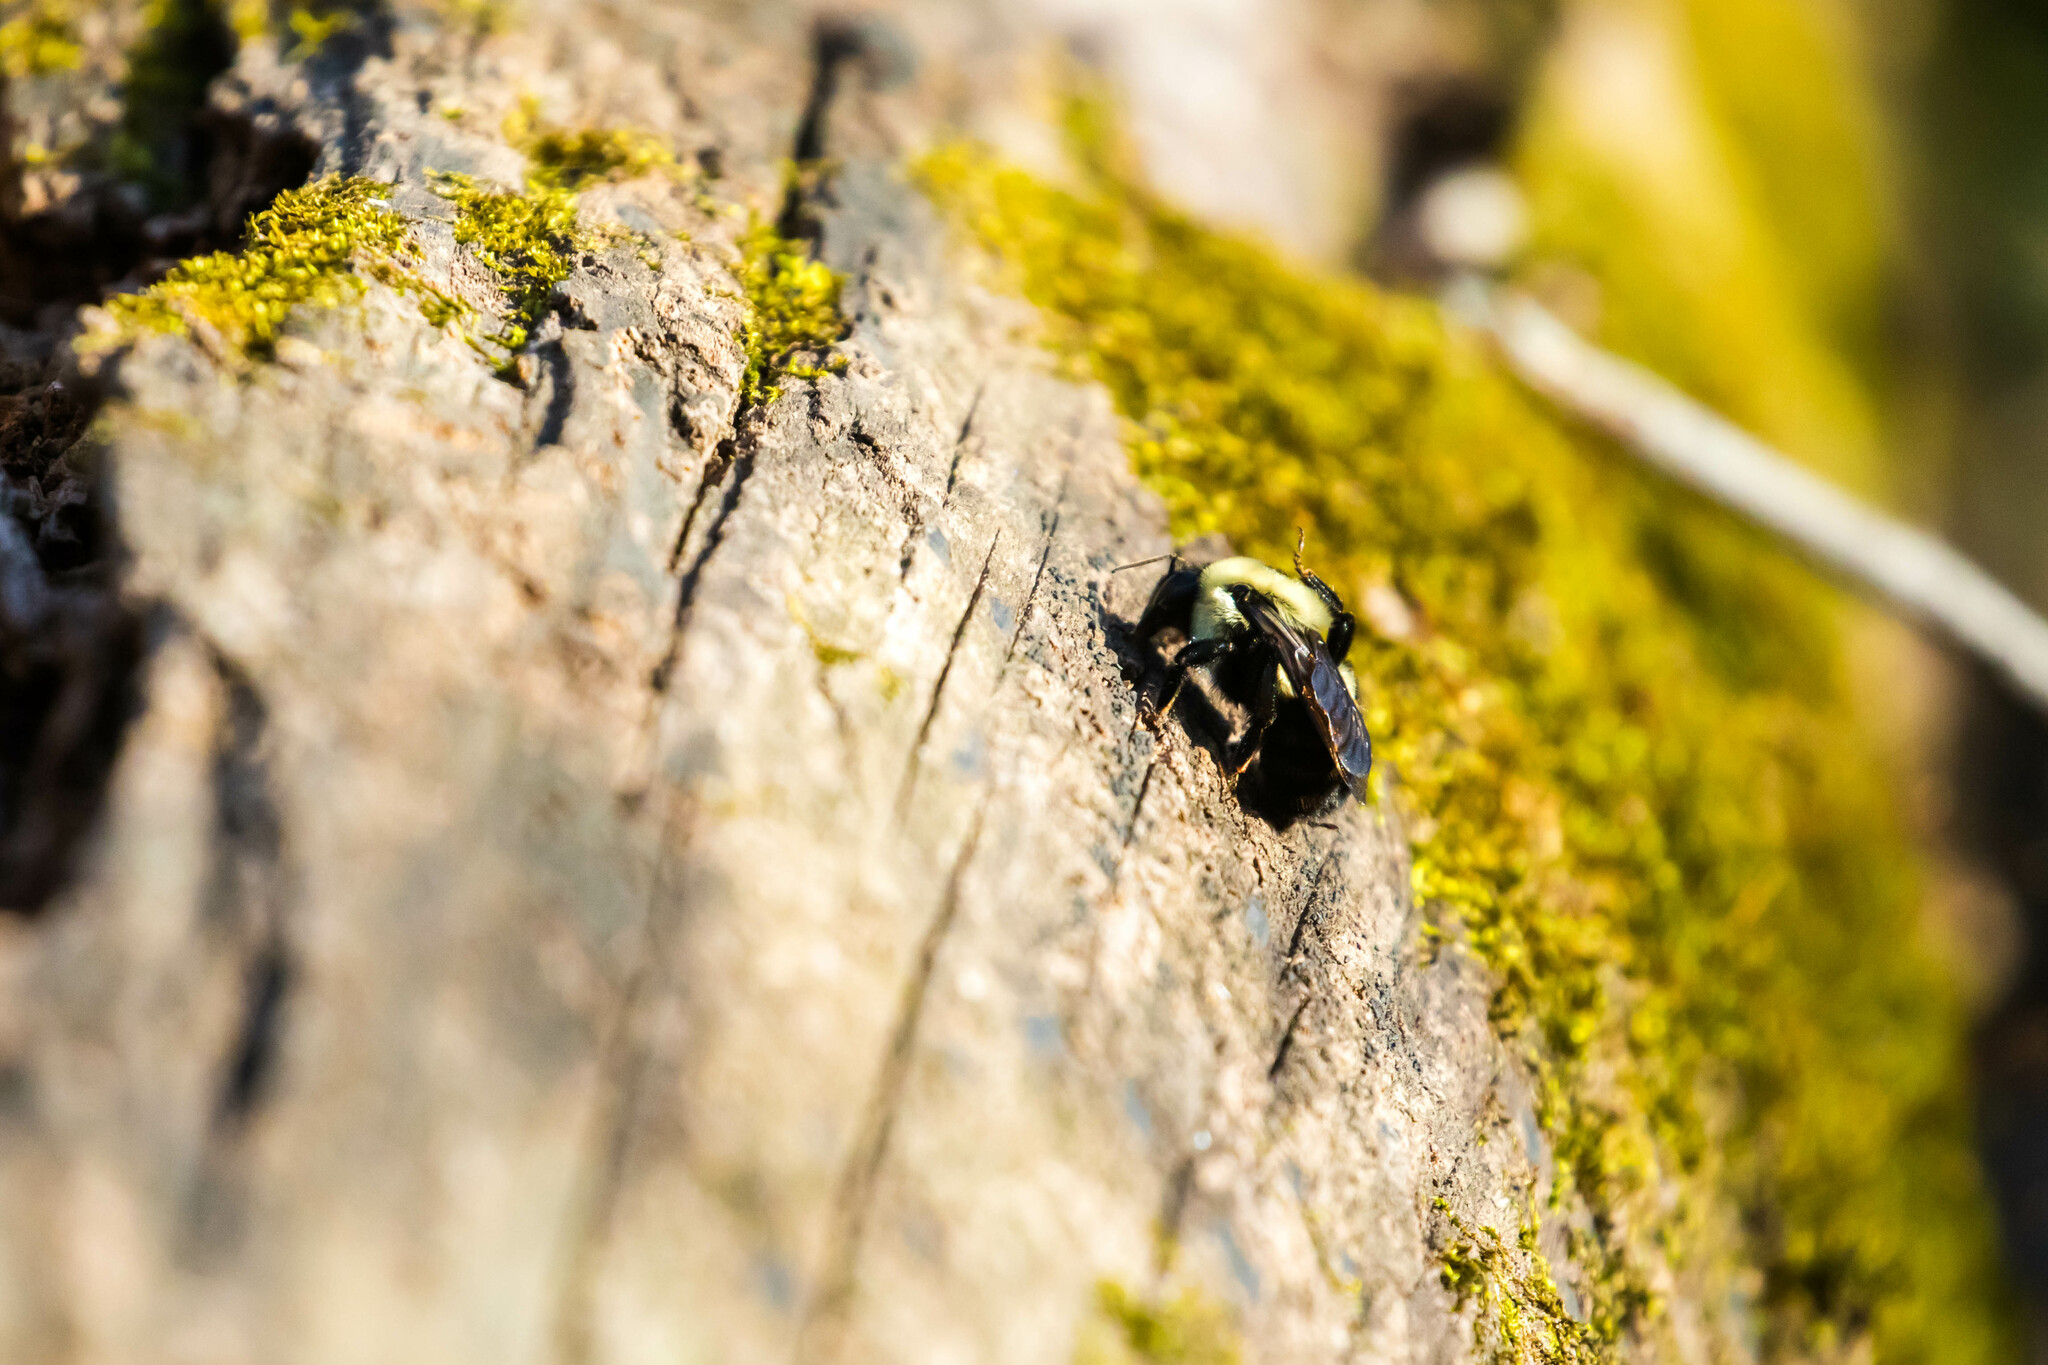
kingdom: Animalia
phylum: Arthropoda
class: Insecta
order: Hymenoptera
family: Apidae
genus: Bombus
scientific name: Bombus griseocollis
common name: Brown-belted bumble bee
